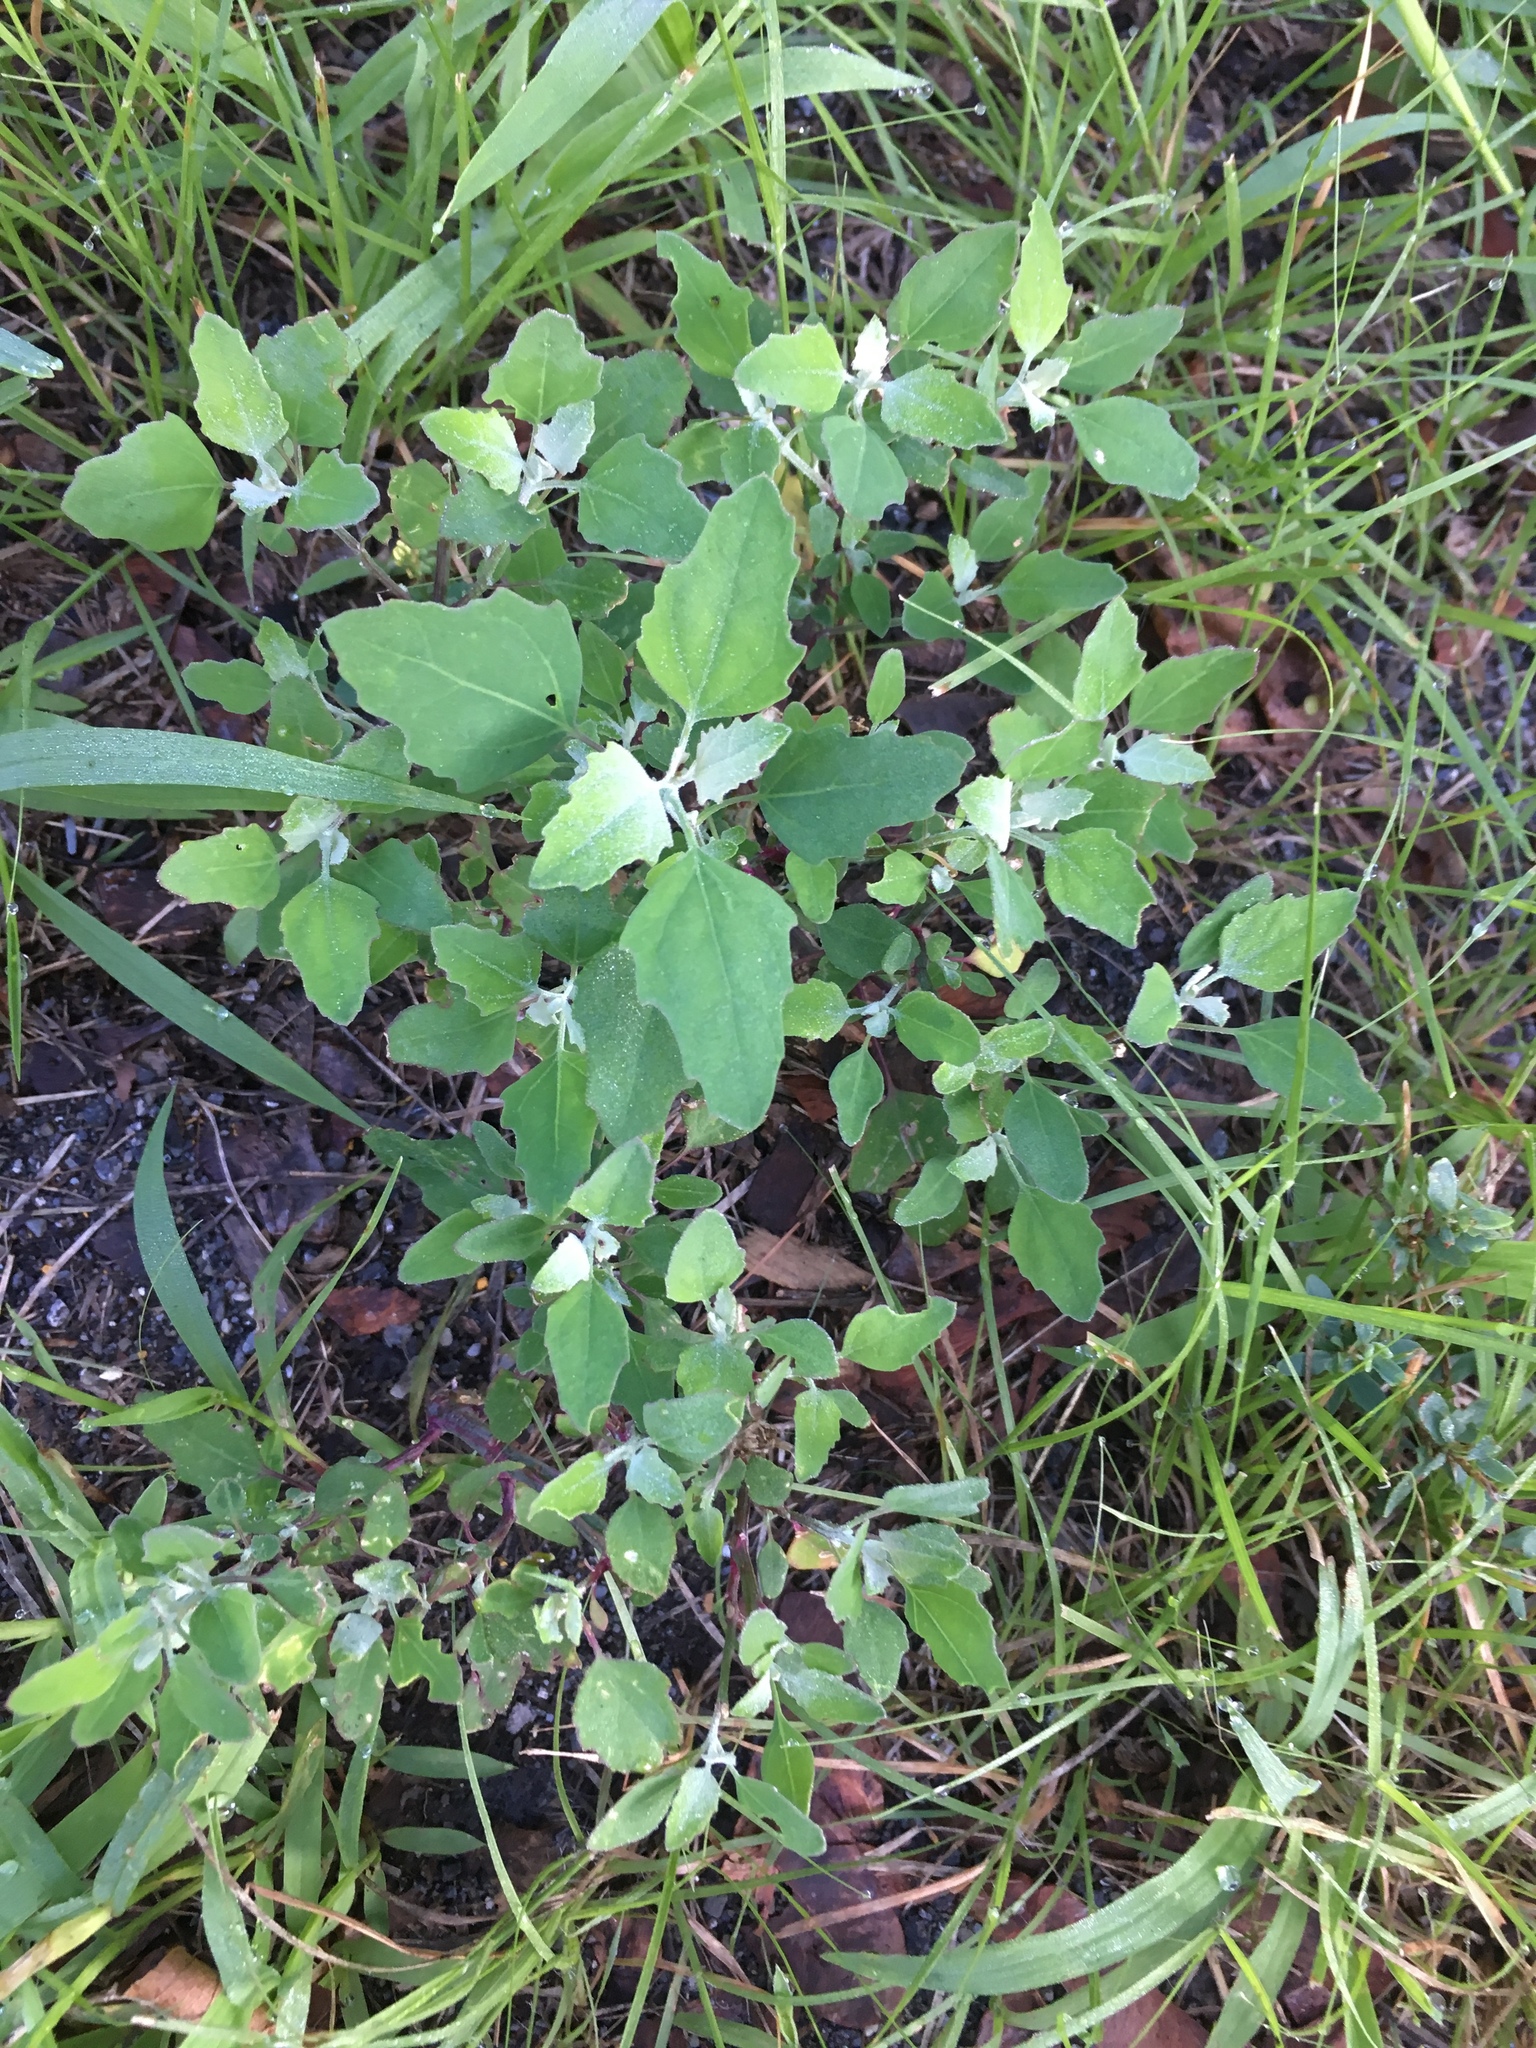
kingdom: Plantae
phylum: Tracheophyta
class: Magnoliopsida
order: Caryophyllales
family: Amaranthaceae
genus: Chenopodium
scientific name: Chenopodium album
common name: Fat-hen
